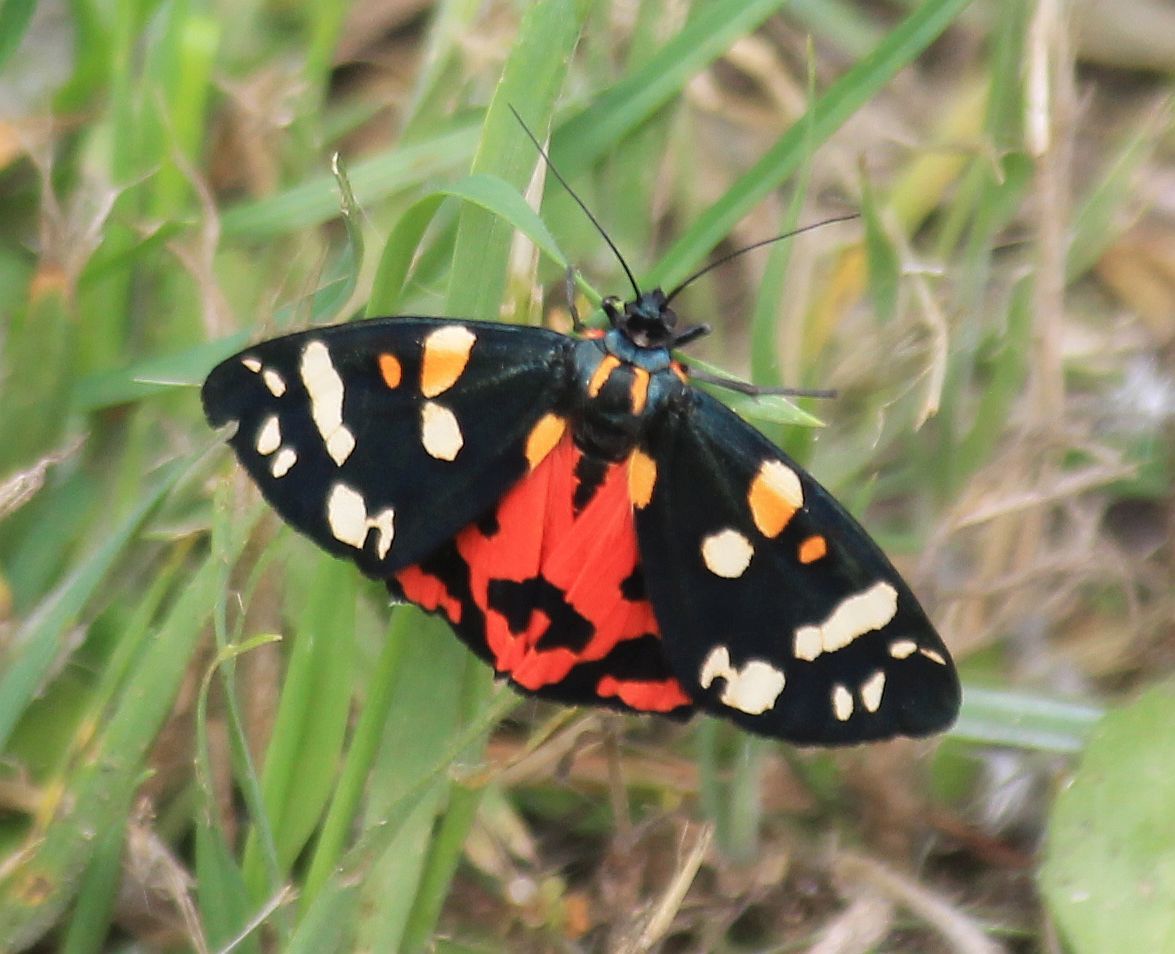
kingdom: Animalia
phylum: Arthropoda
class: Insecta
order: Lepidoptera
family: Erebidae
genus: Callimorpha
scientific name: Callimorpha dominula
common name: Scarlet tiger
